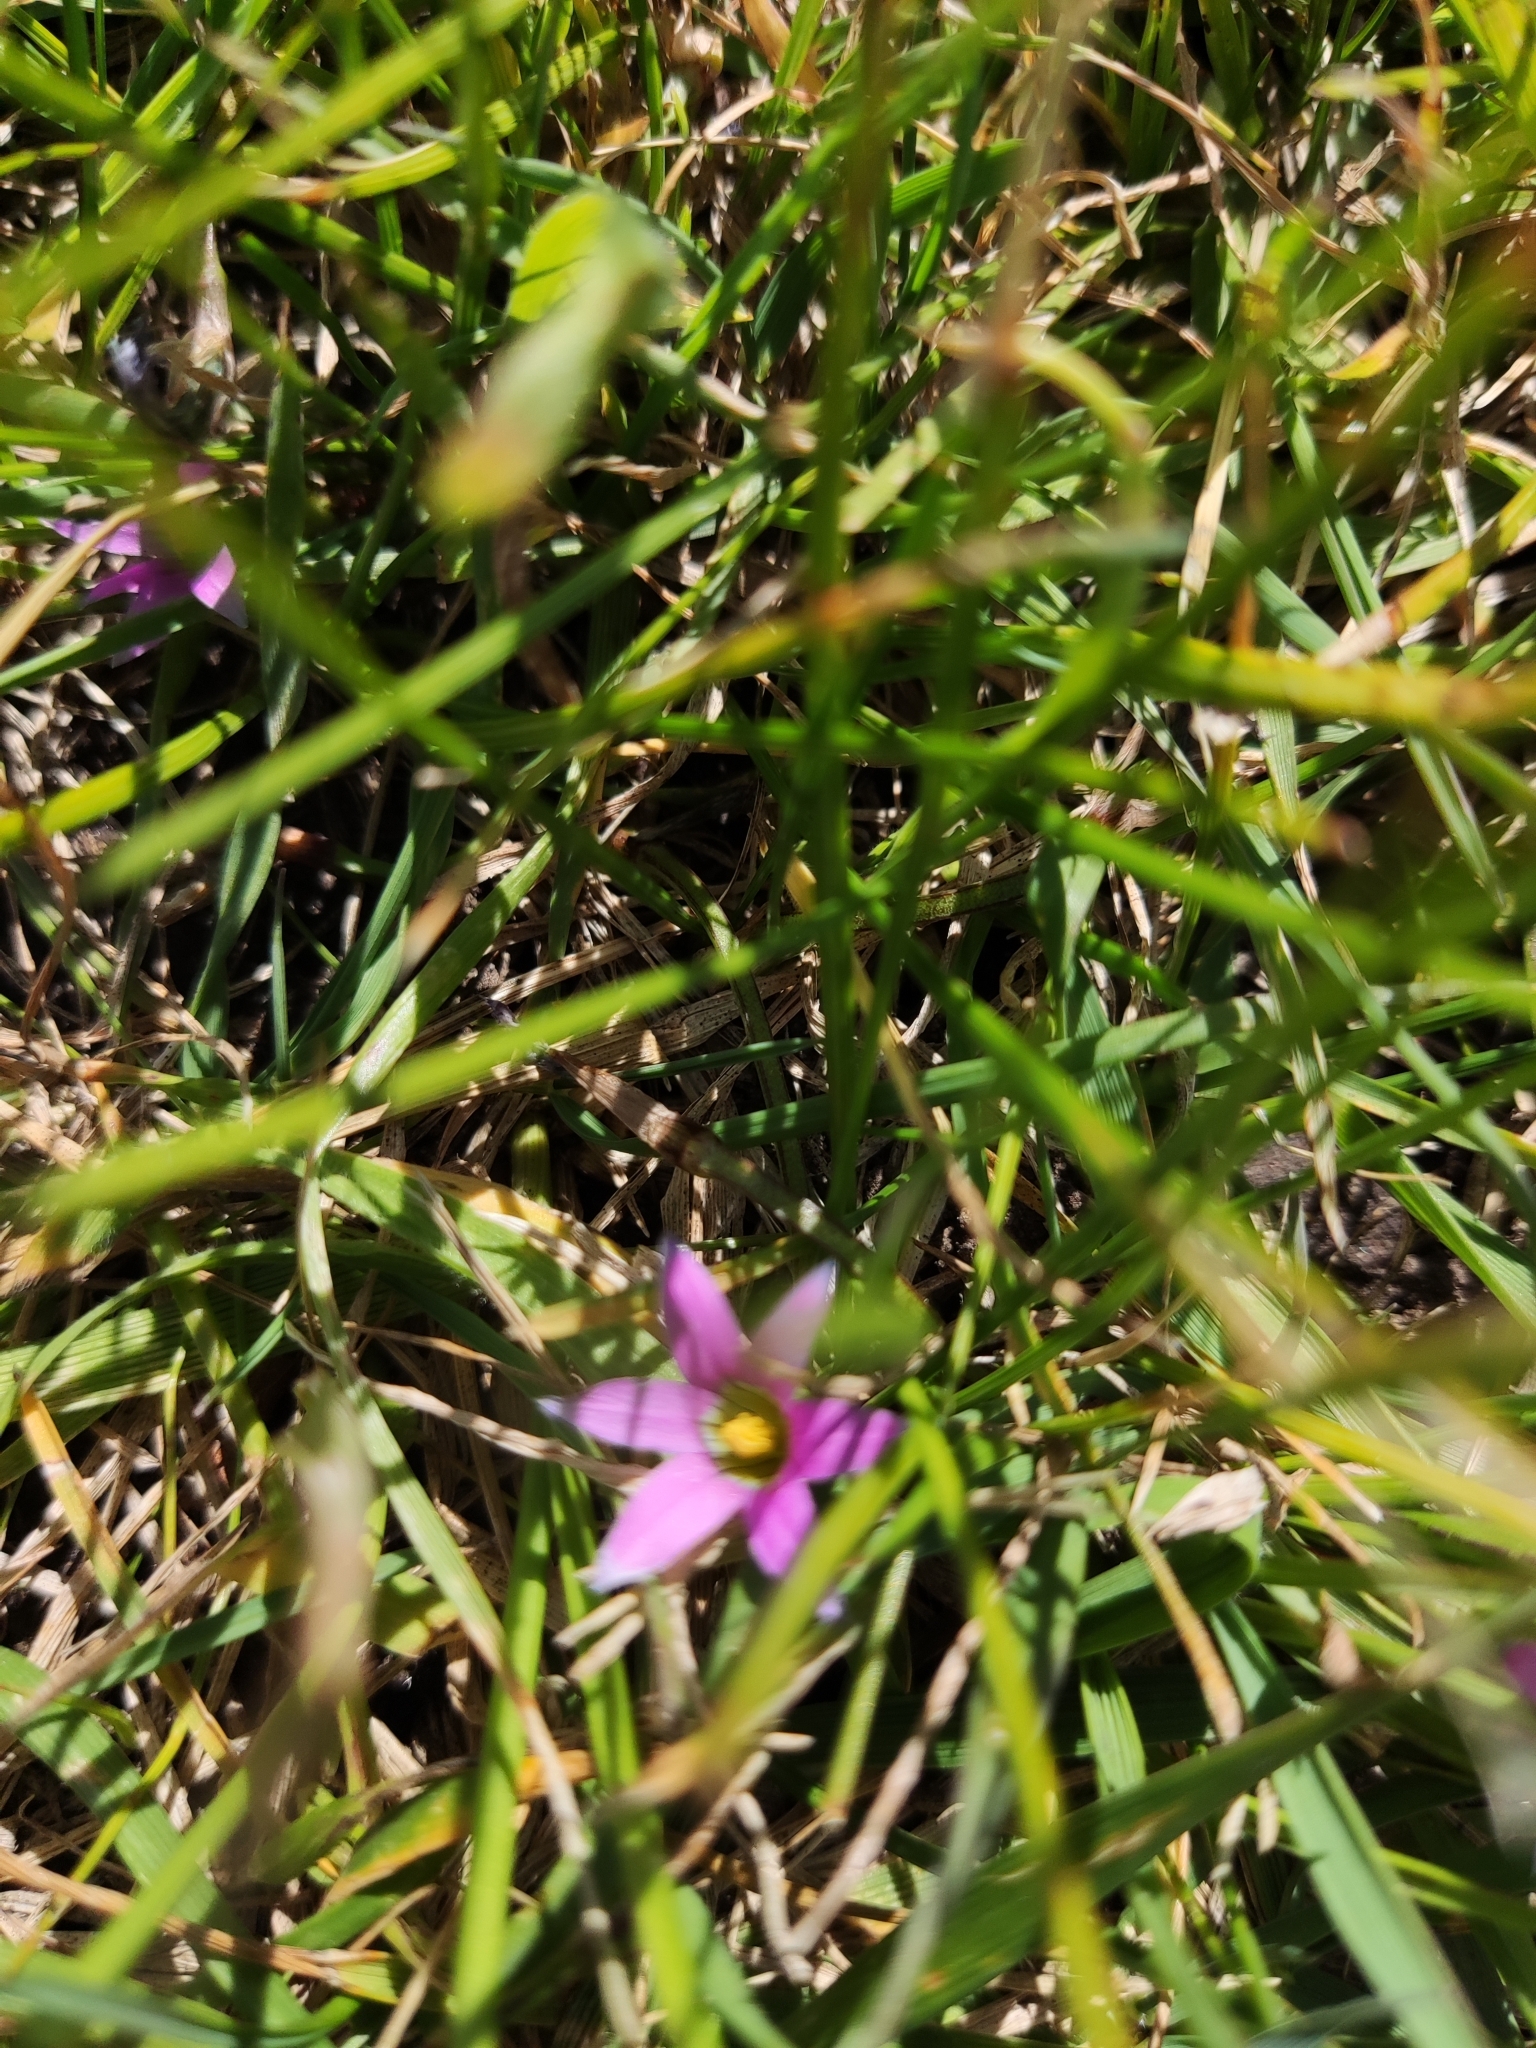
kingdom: Plantae
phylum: Tracheophyta
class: Liliopsida
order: Asparagales
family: Iridaceae
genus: Romulea
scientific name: Romulea rosea
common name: Oniongrass
